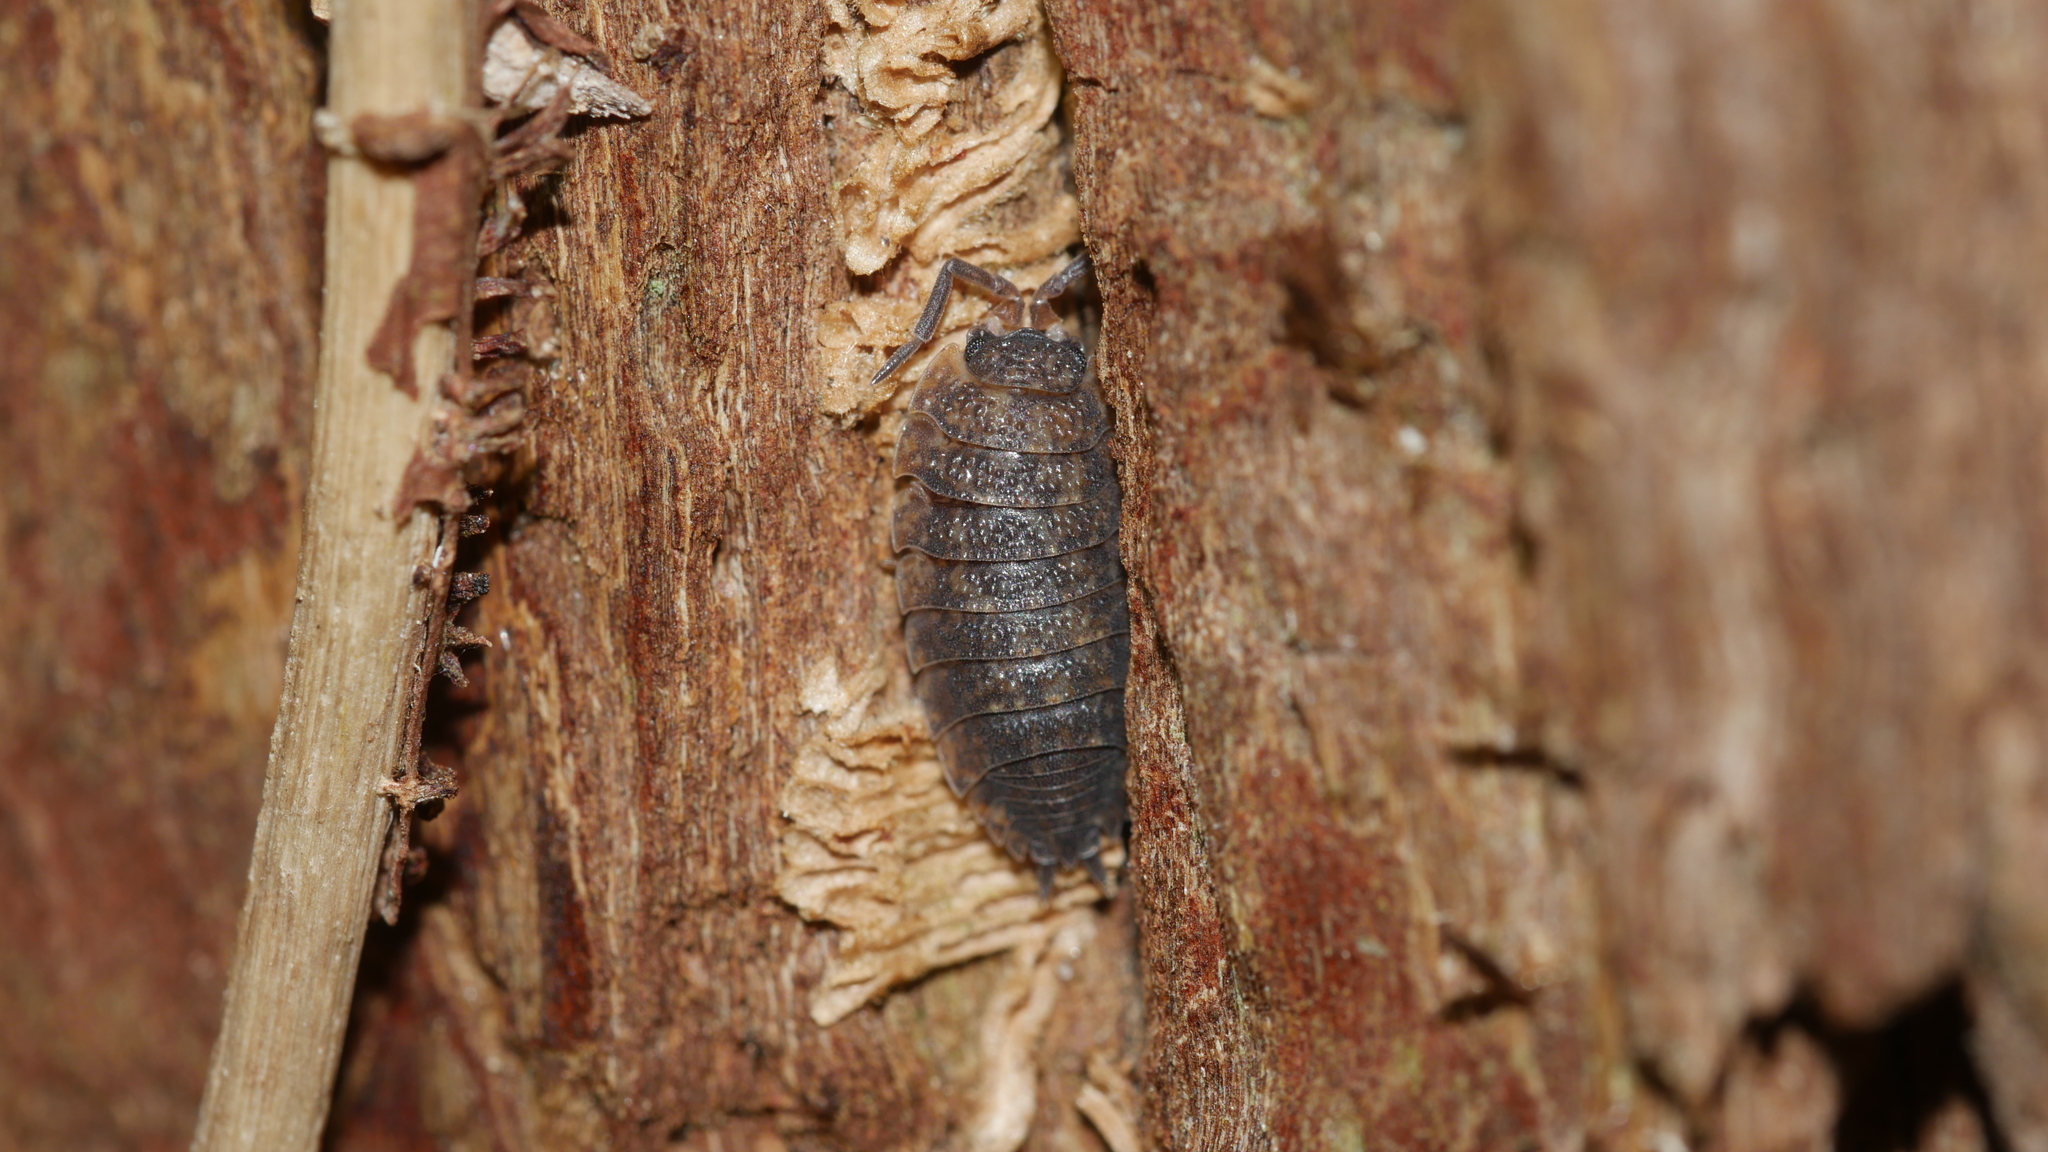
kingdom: Animalia
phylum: Arthropoda
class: Malacostraca
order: Isopoda
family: Porcellionidae
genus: Porcellio
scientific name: Porcellio scaber
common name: Common rough woodlouse
